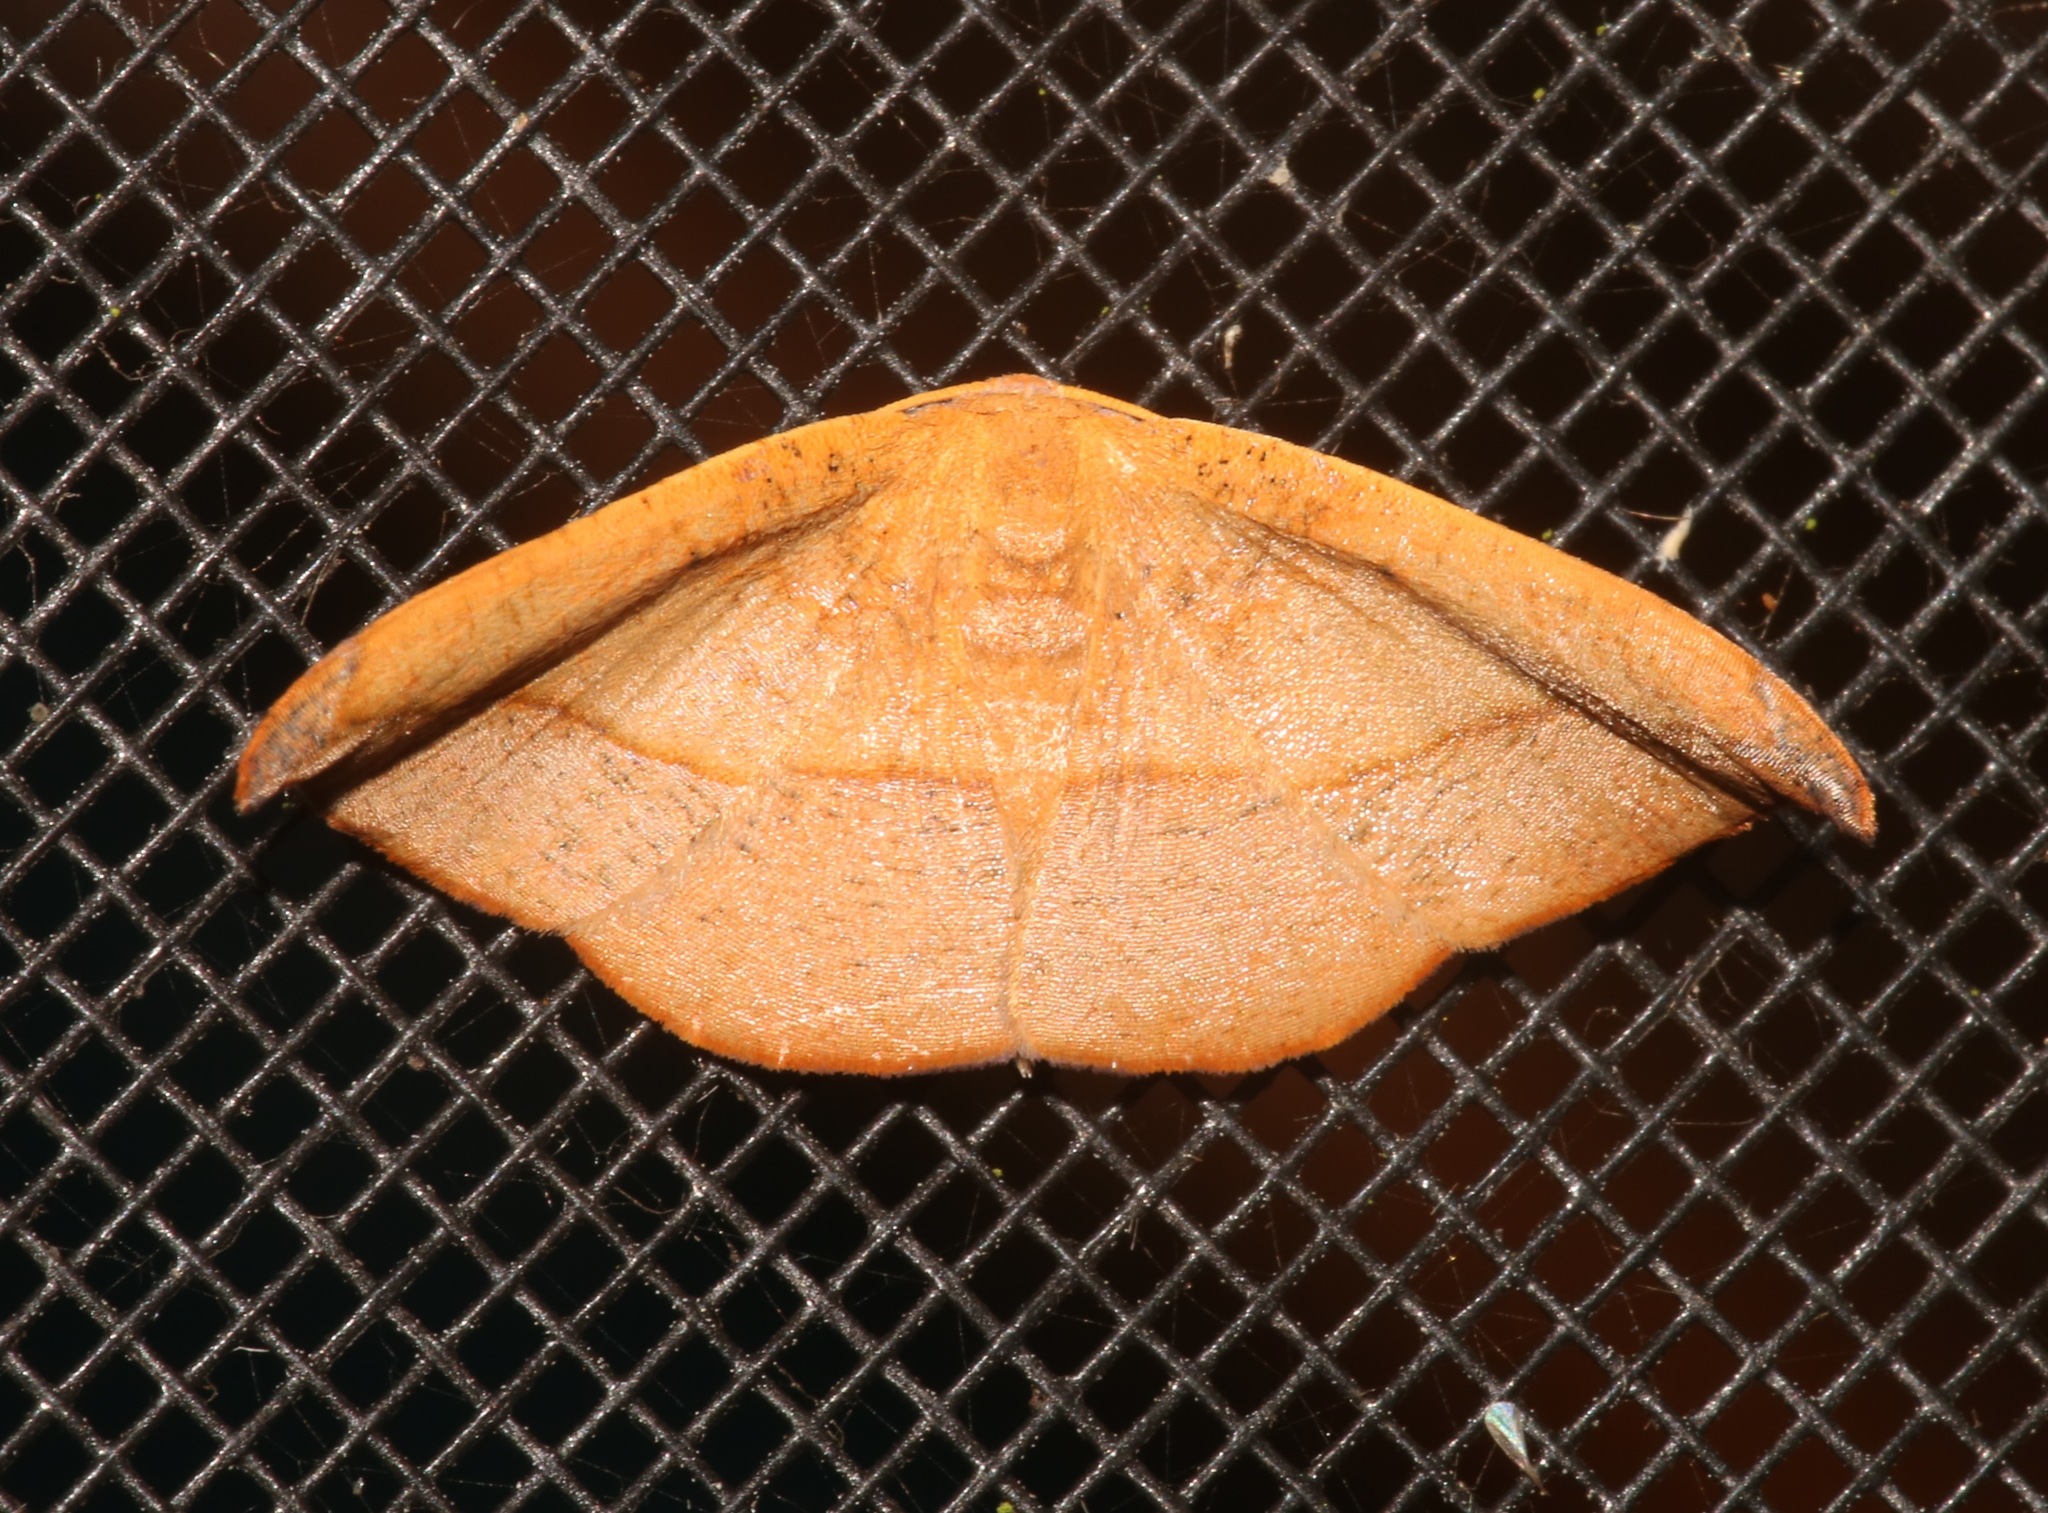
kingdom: Animalia
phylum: Arthropoda
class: Insecta
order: Lepidoptera
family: Geometridae
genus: Patalene
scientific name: Patalene olyzonaria
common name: Juniper geometer moth
